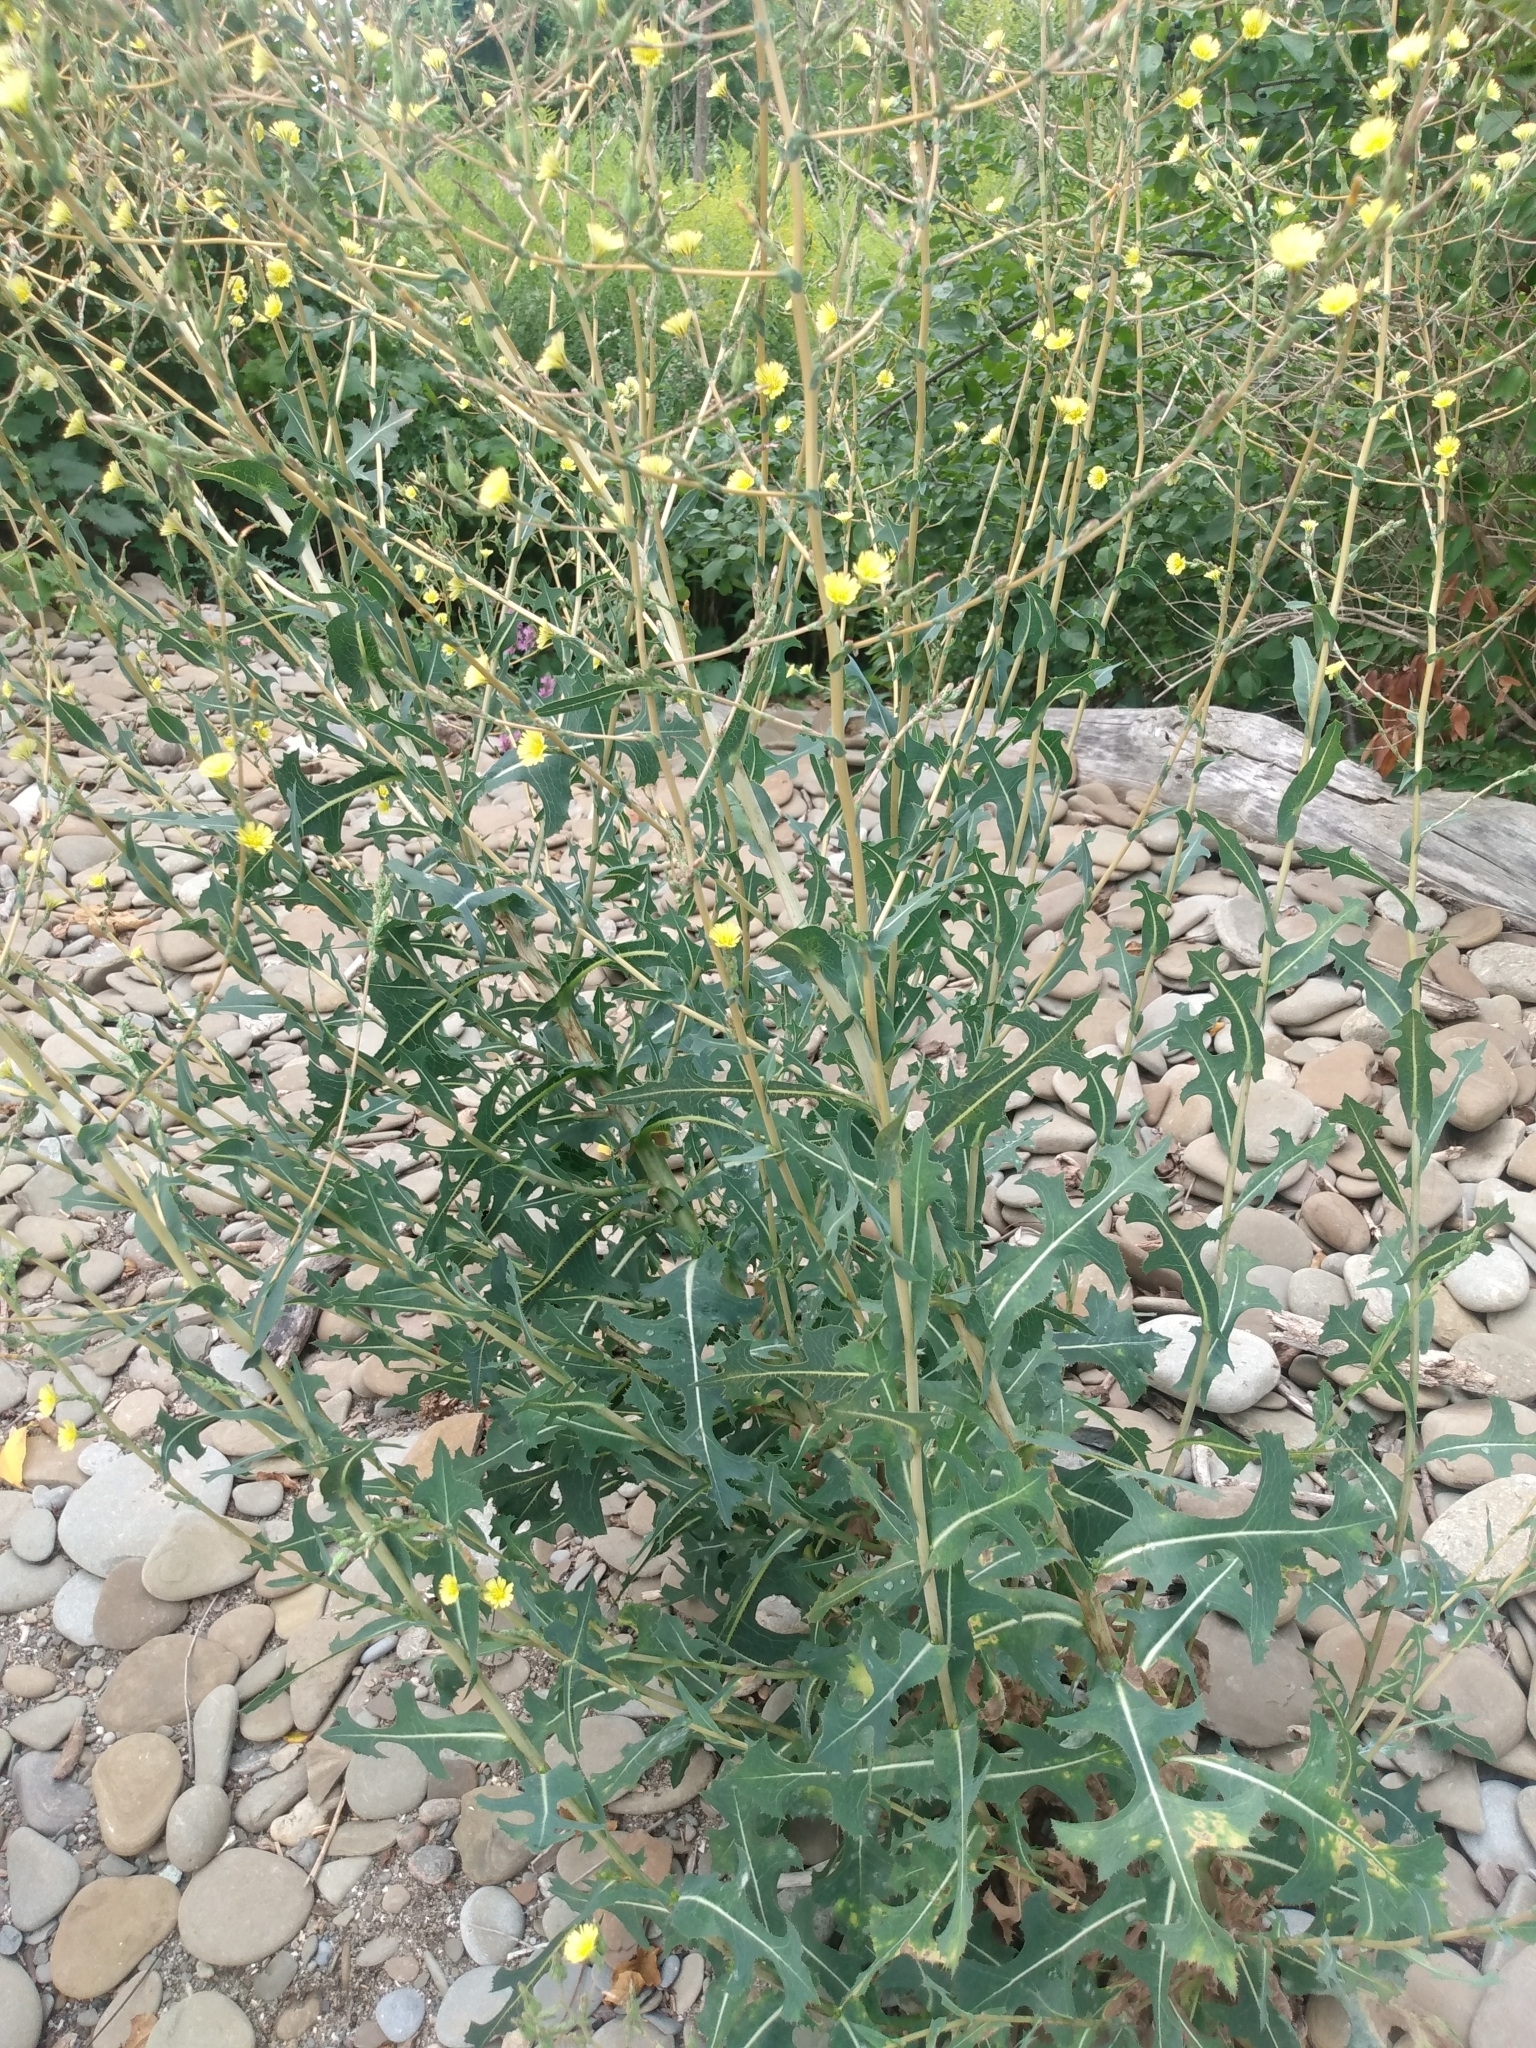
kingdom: Plantae
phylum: Tracheophyta
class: Magnoliopsida
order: Asterales
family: Asteraceae
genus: Lactuca
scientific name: Lactuca serriola
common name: Prickly lettuce
